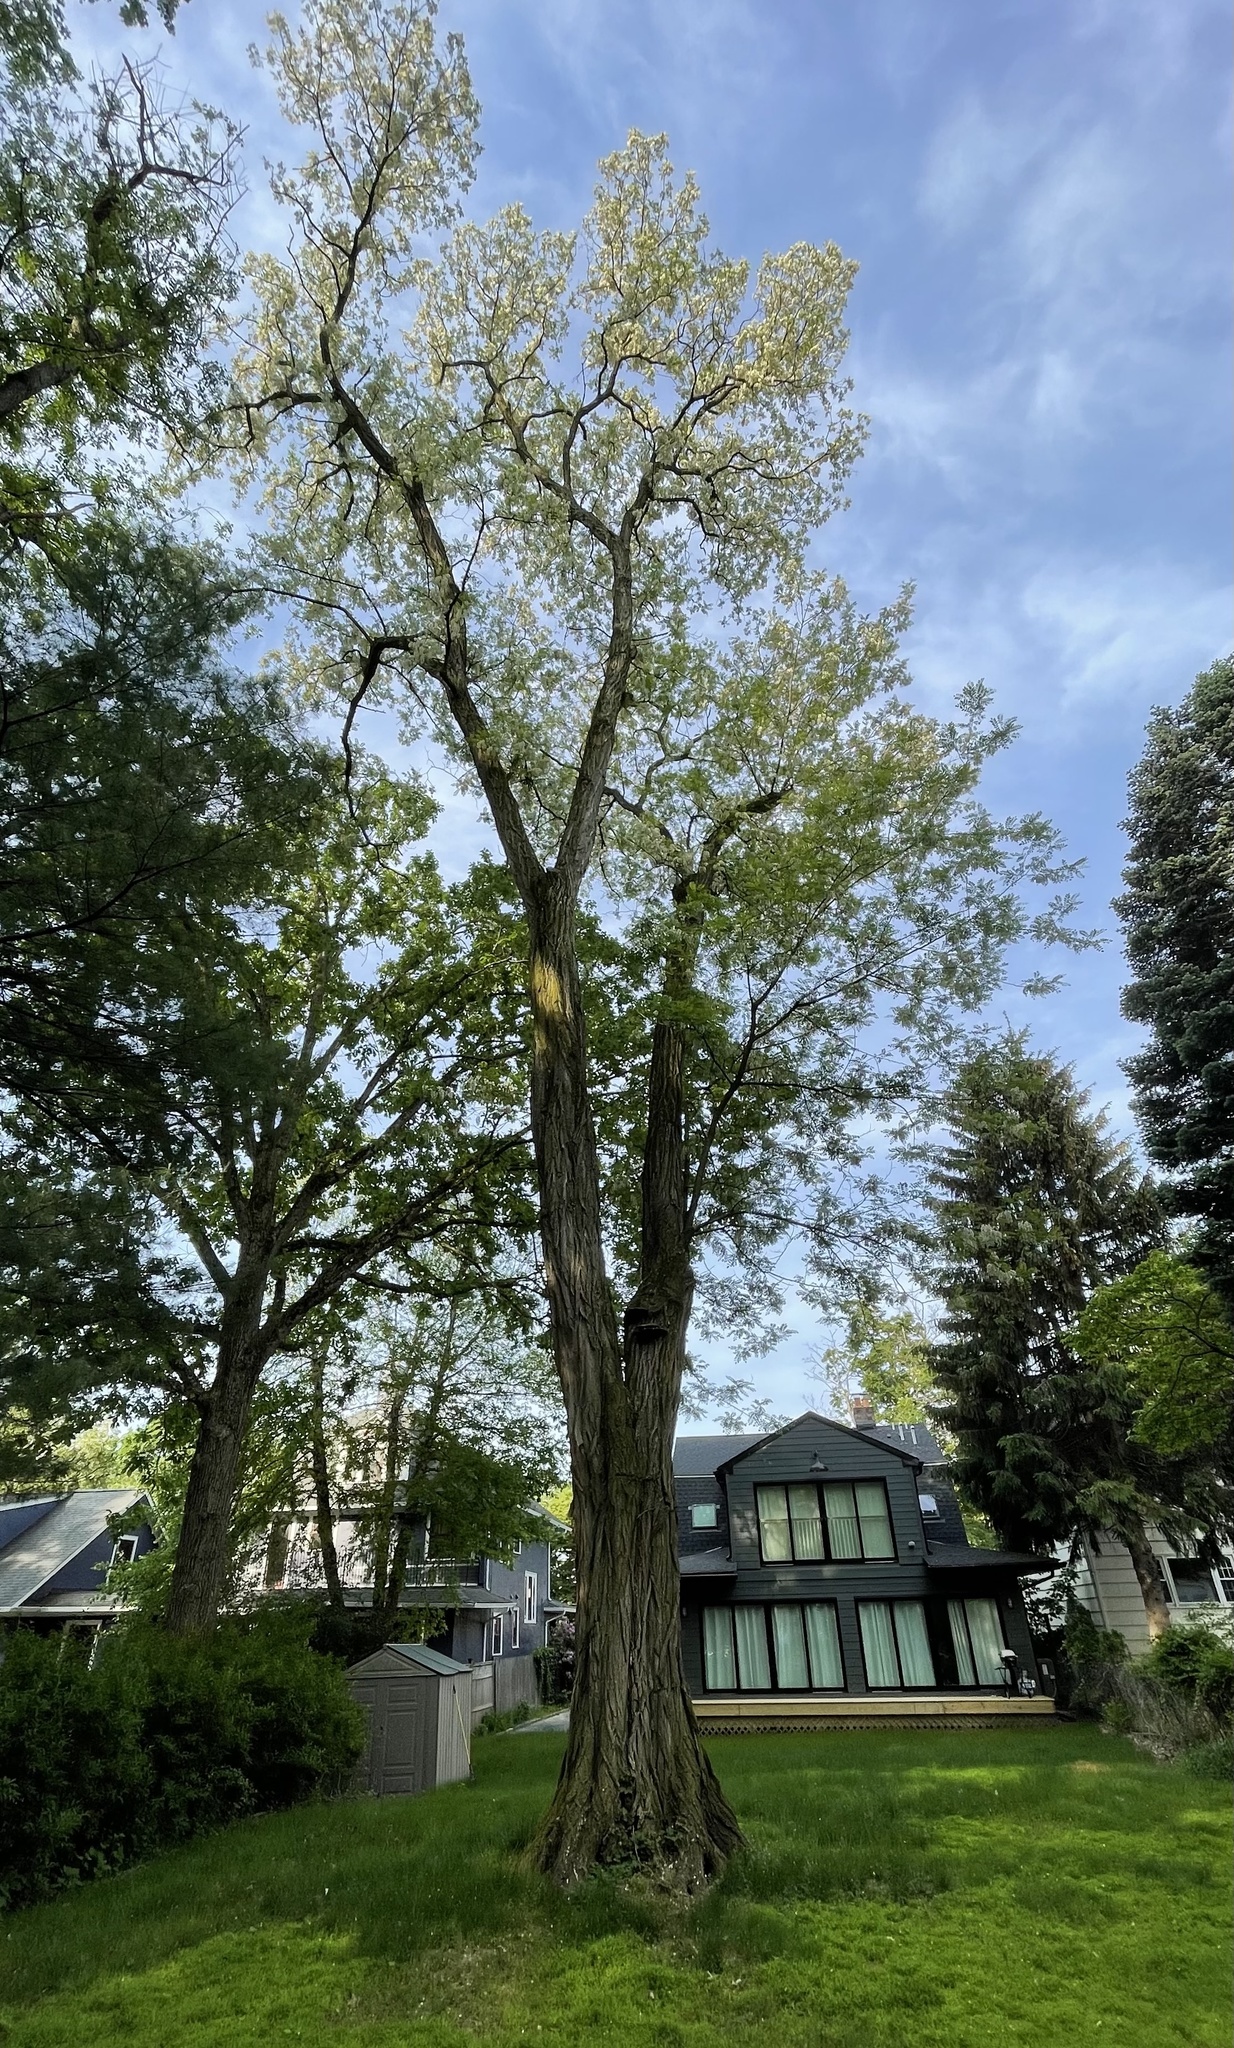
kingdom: Plantae
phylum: Tracheophyta
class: Magnoliopsida
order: Fabales
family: Fabaceae
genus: Robinia
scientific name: Robinia pseudoacacia
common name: Black locust
